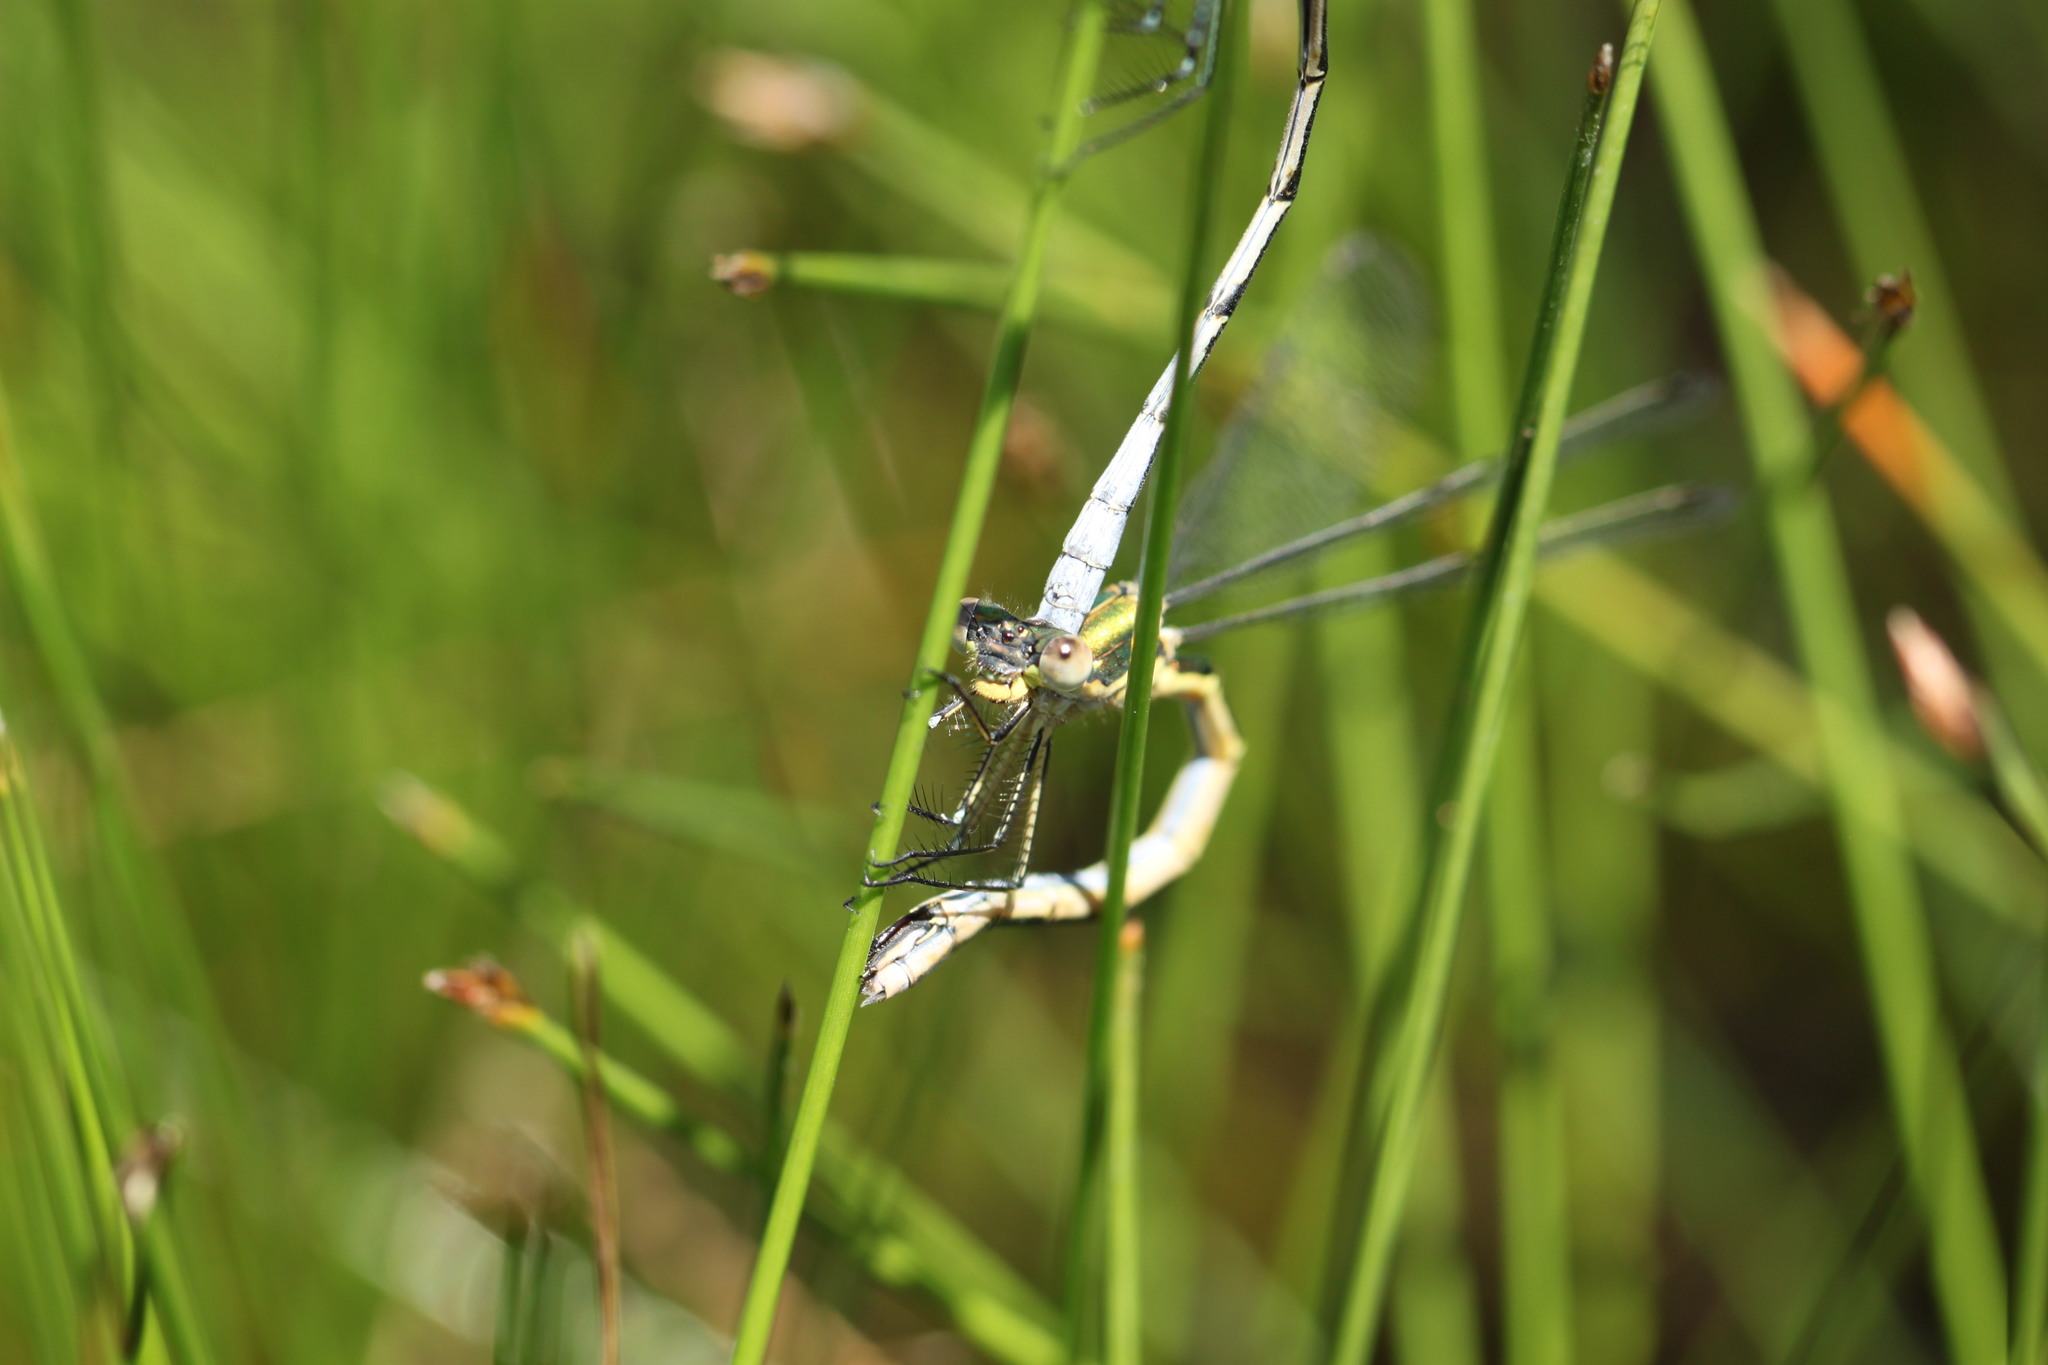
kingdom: Animalia
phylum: Arthropoda
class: Insecta
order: Odonata
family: Lestidae
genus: Lestes
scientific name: Lestes dryas
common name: Scarce emerald damselfly
